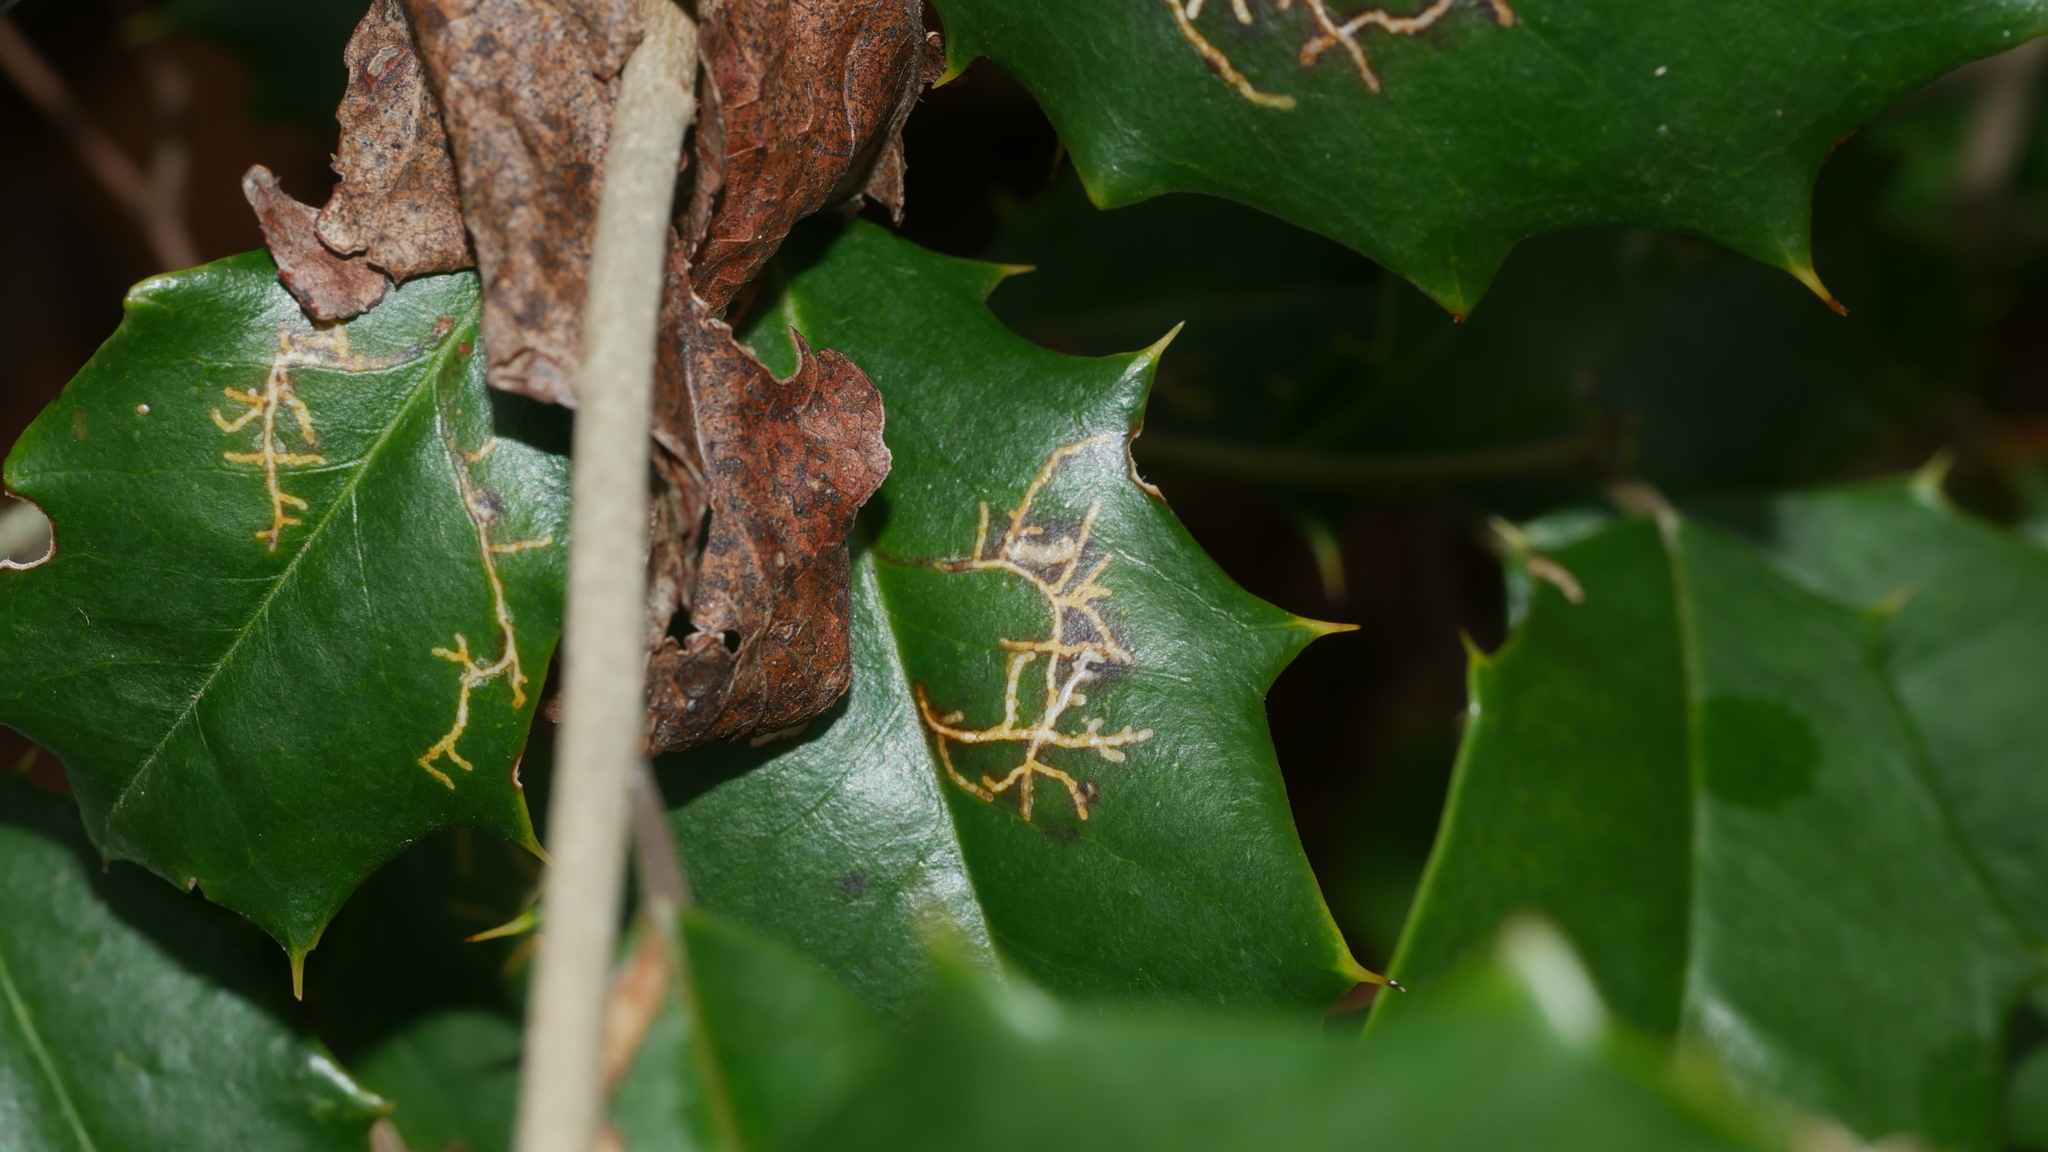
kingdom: Animalia
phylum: Arthropoda
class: Insecta
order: Lepidoptera
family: Tortricidae
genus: Rhopobota
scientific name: Rhopobota
